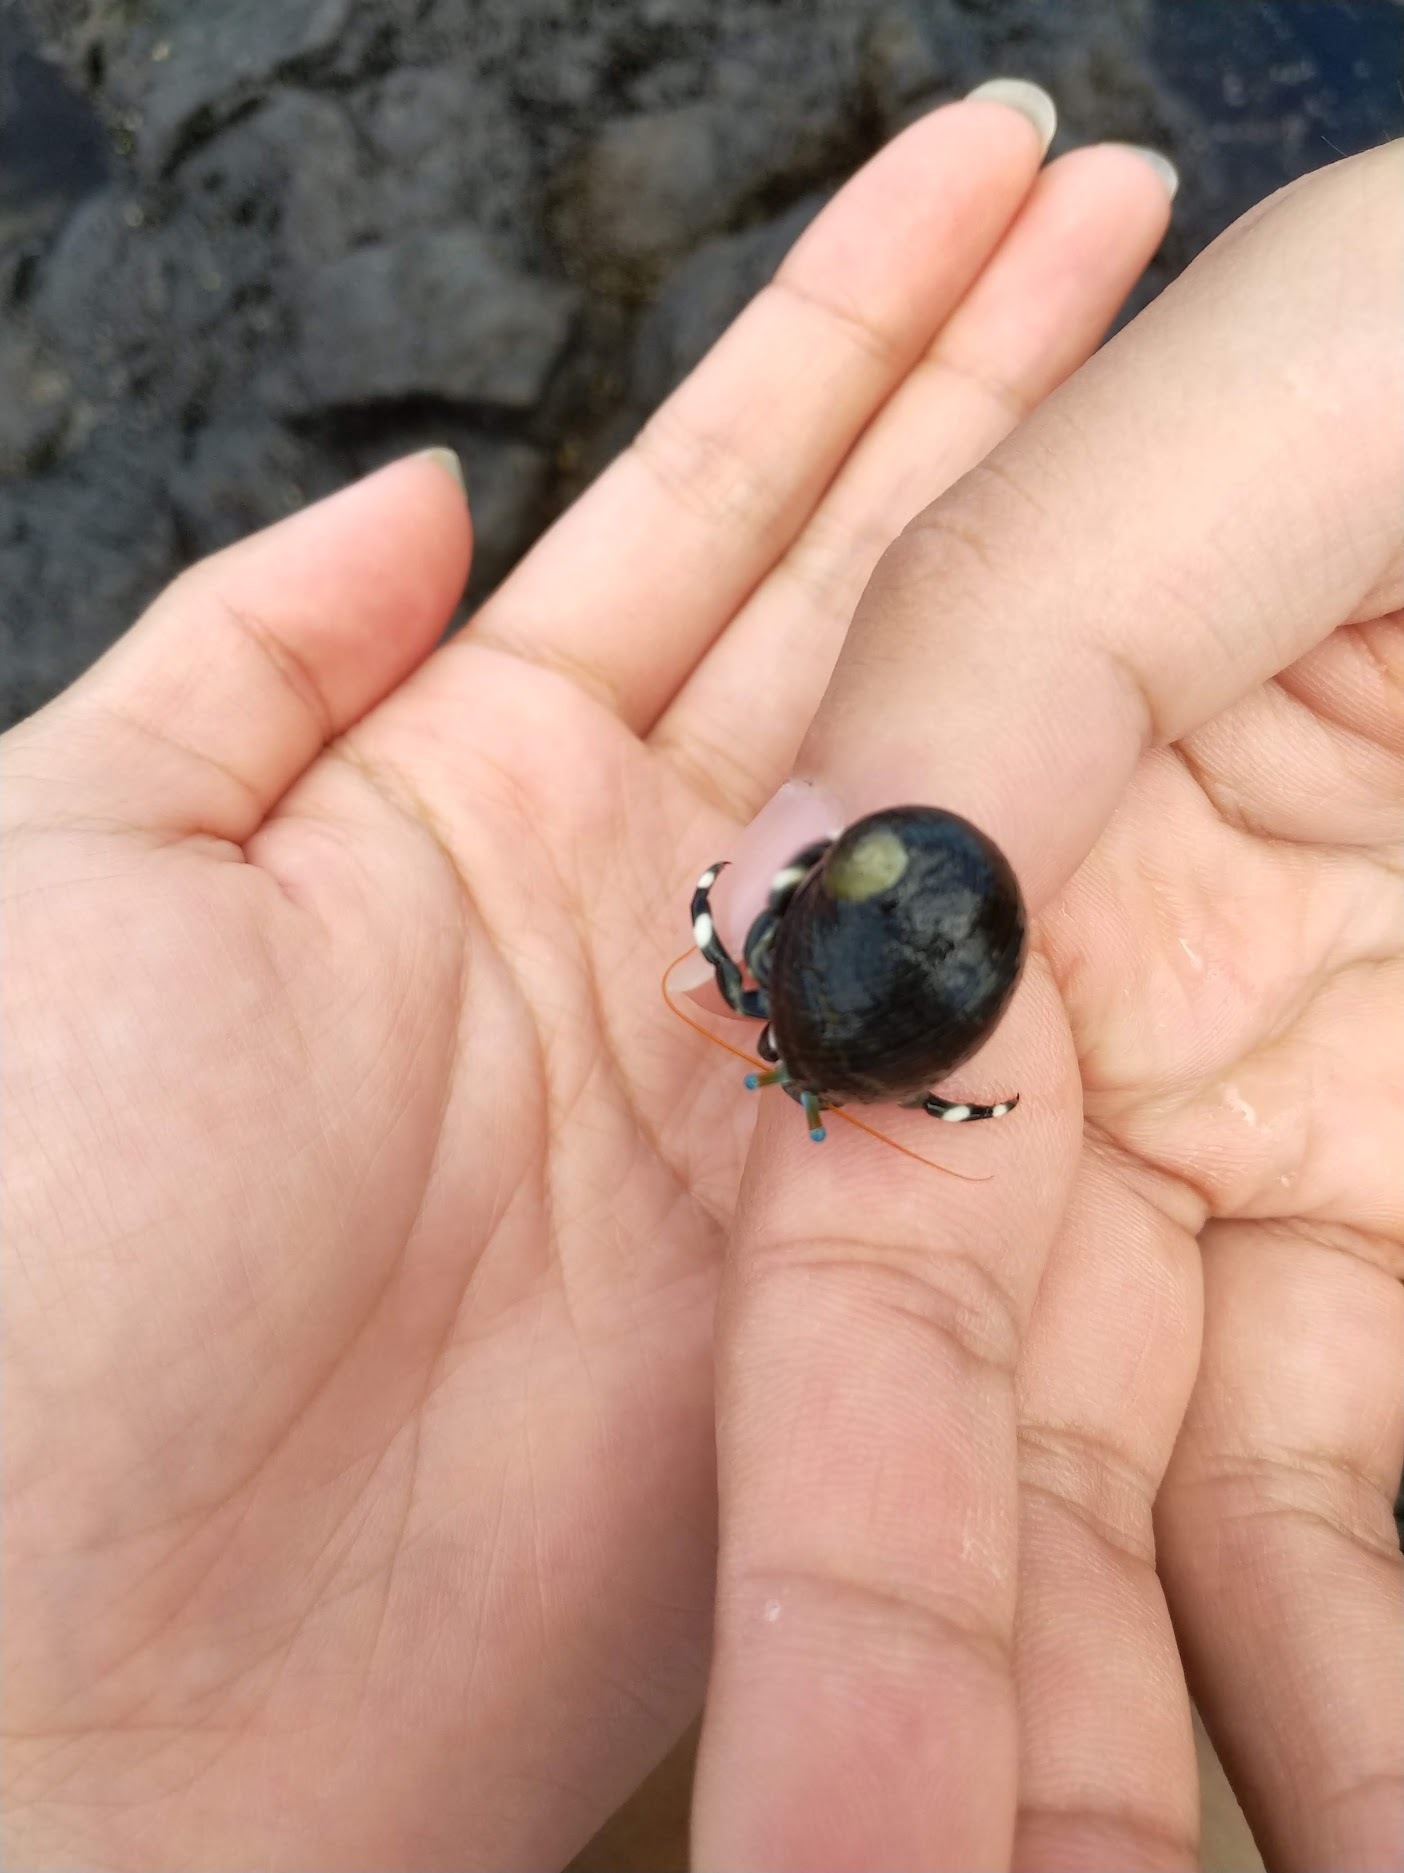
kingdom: Animalia
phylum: Arthropoda
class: Malacostraca
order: Decapoda
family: Diogenidae
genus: Calcinus
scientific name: Calcinus seurati
